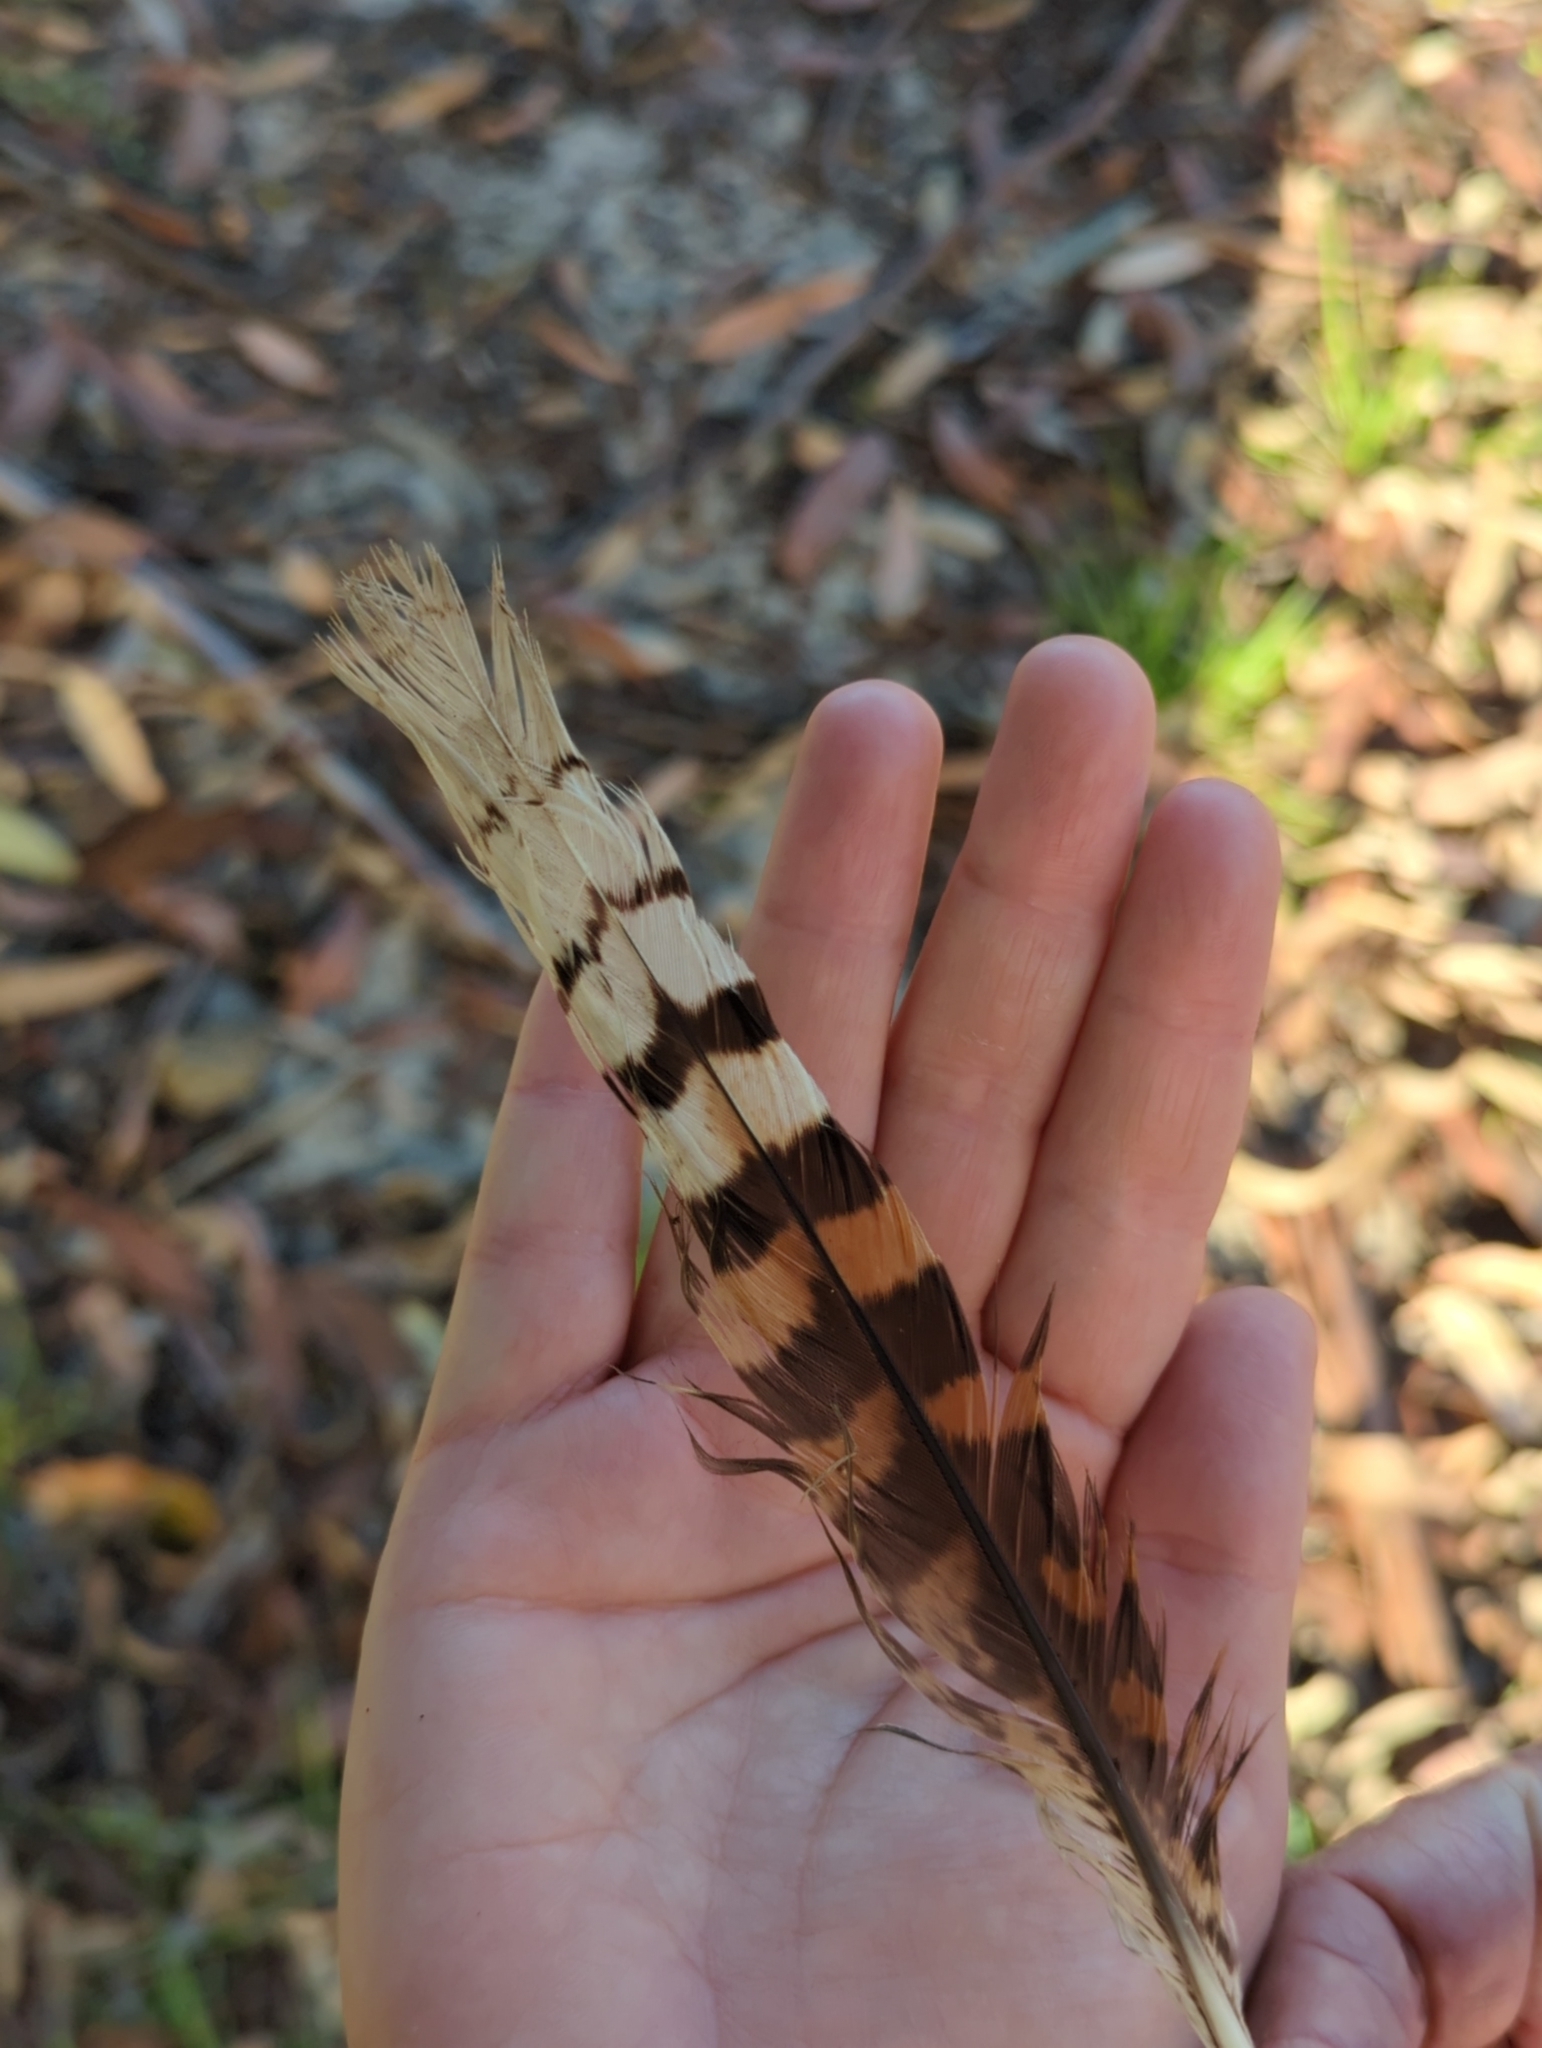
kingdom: Animalia
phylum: Chordata
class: Aves
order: Coraciiformes
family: Alcedinidae
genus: Dacelo
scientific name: Dacelo novaeguineae
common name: Laughing kookaburra
